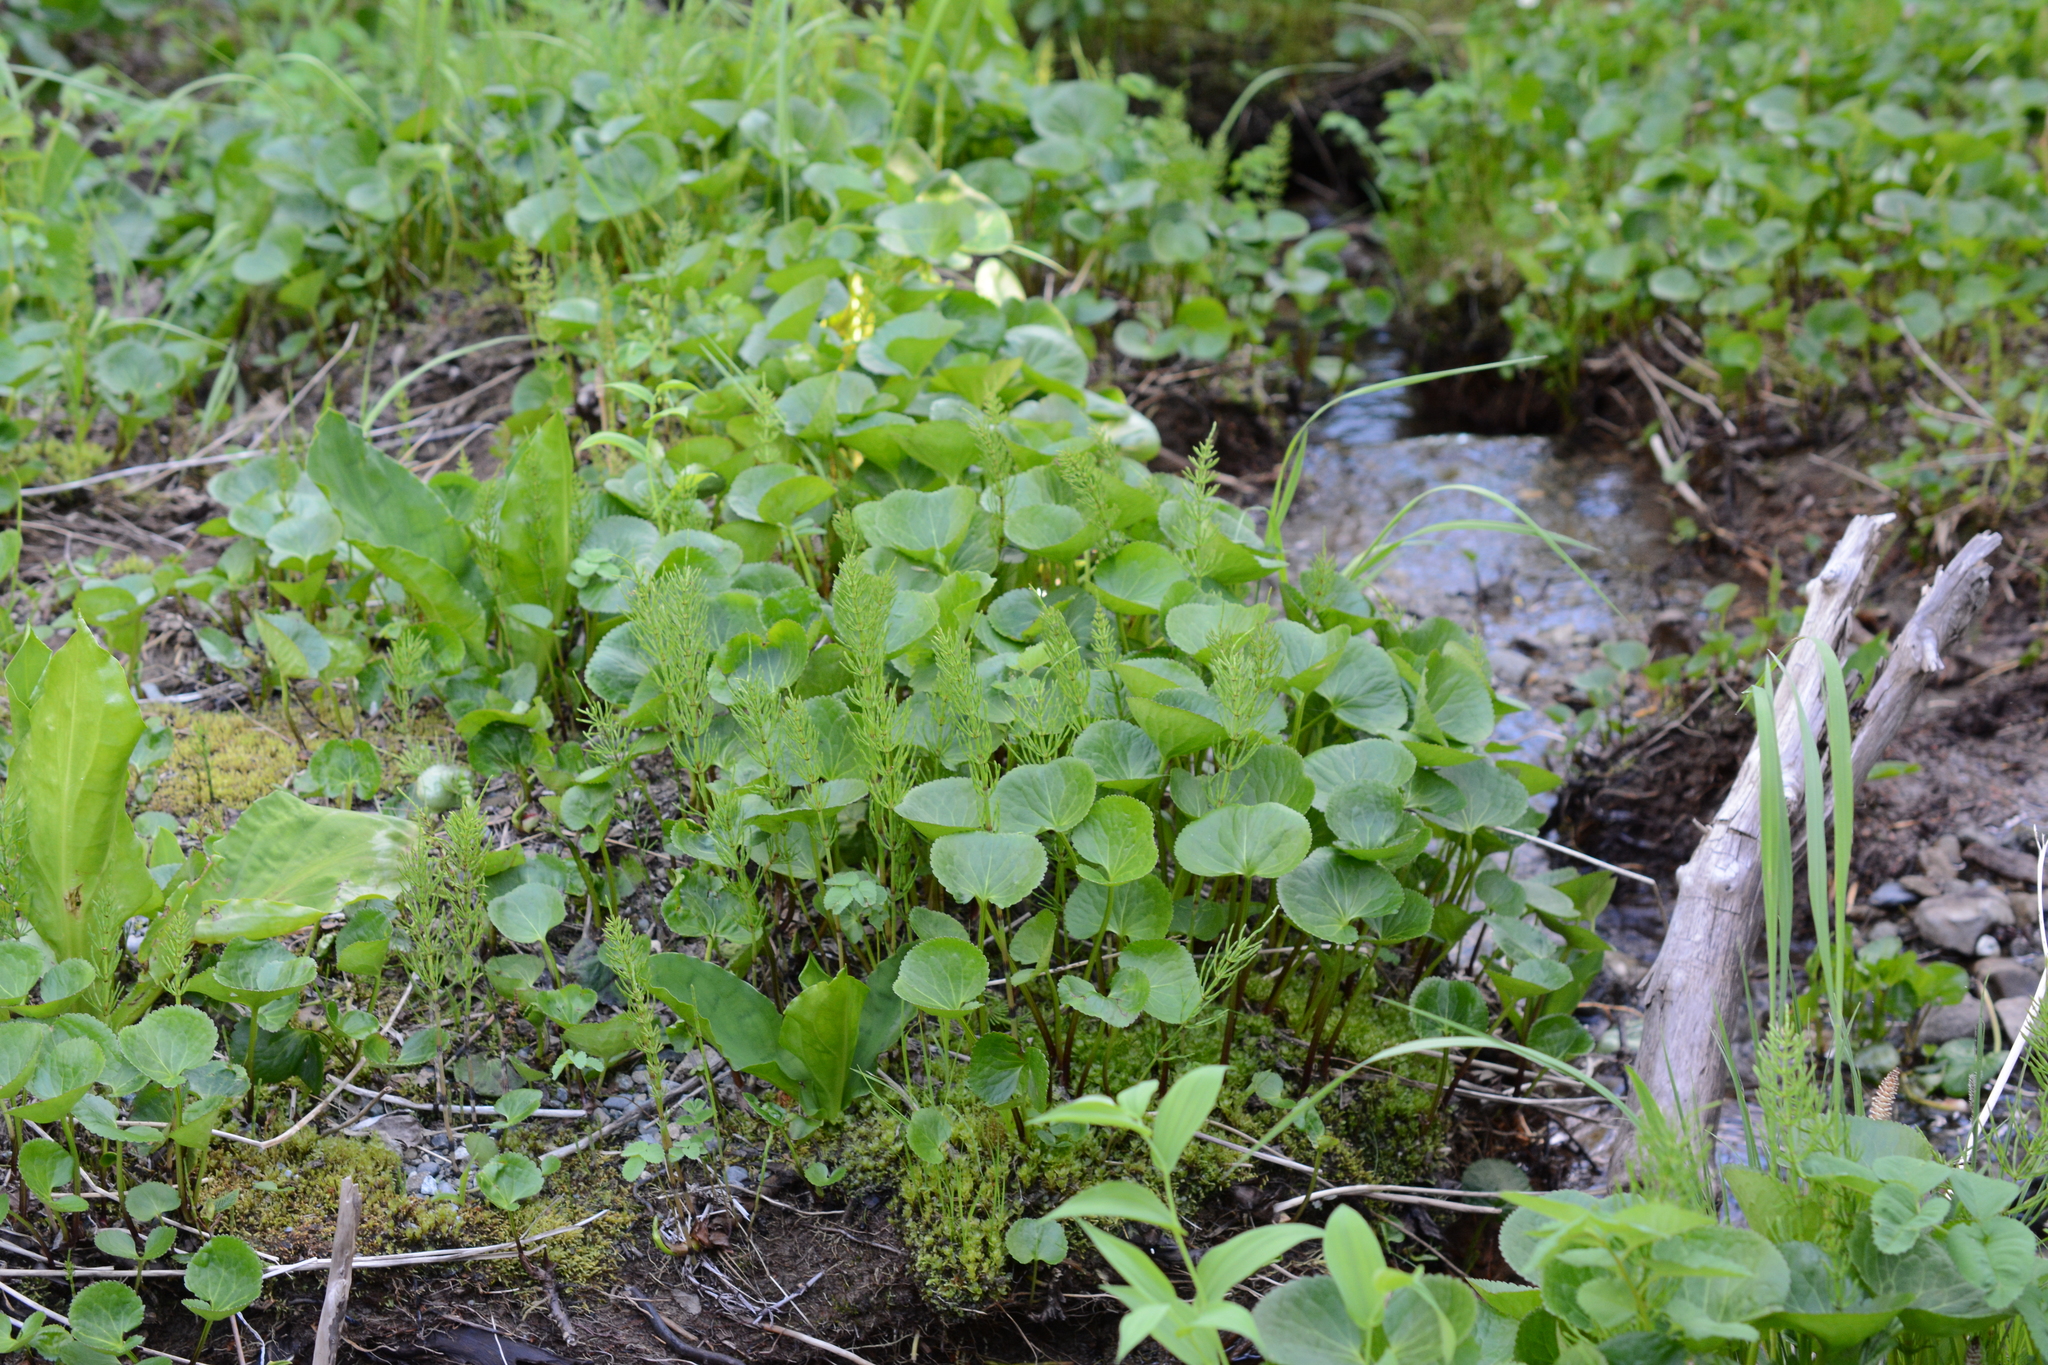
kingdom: Plantae
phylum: Tracheophyta
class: Magnoliopsida
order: Asterales
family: Menyanthaceae
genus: Nephrophyllidium
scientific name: Nephrophyllidium crista-galli
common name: Deer-cabbage
